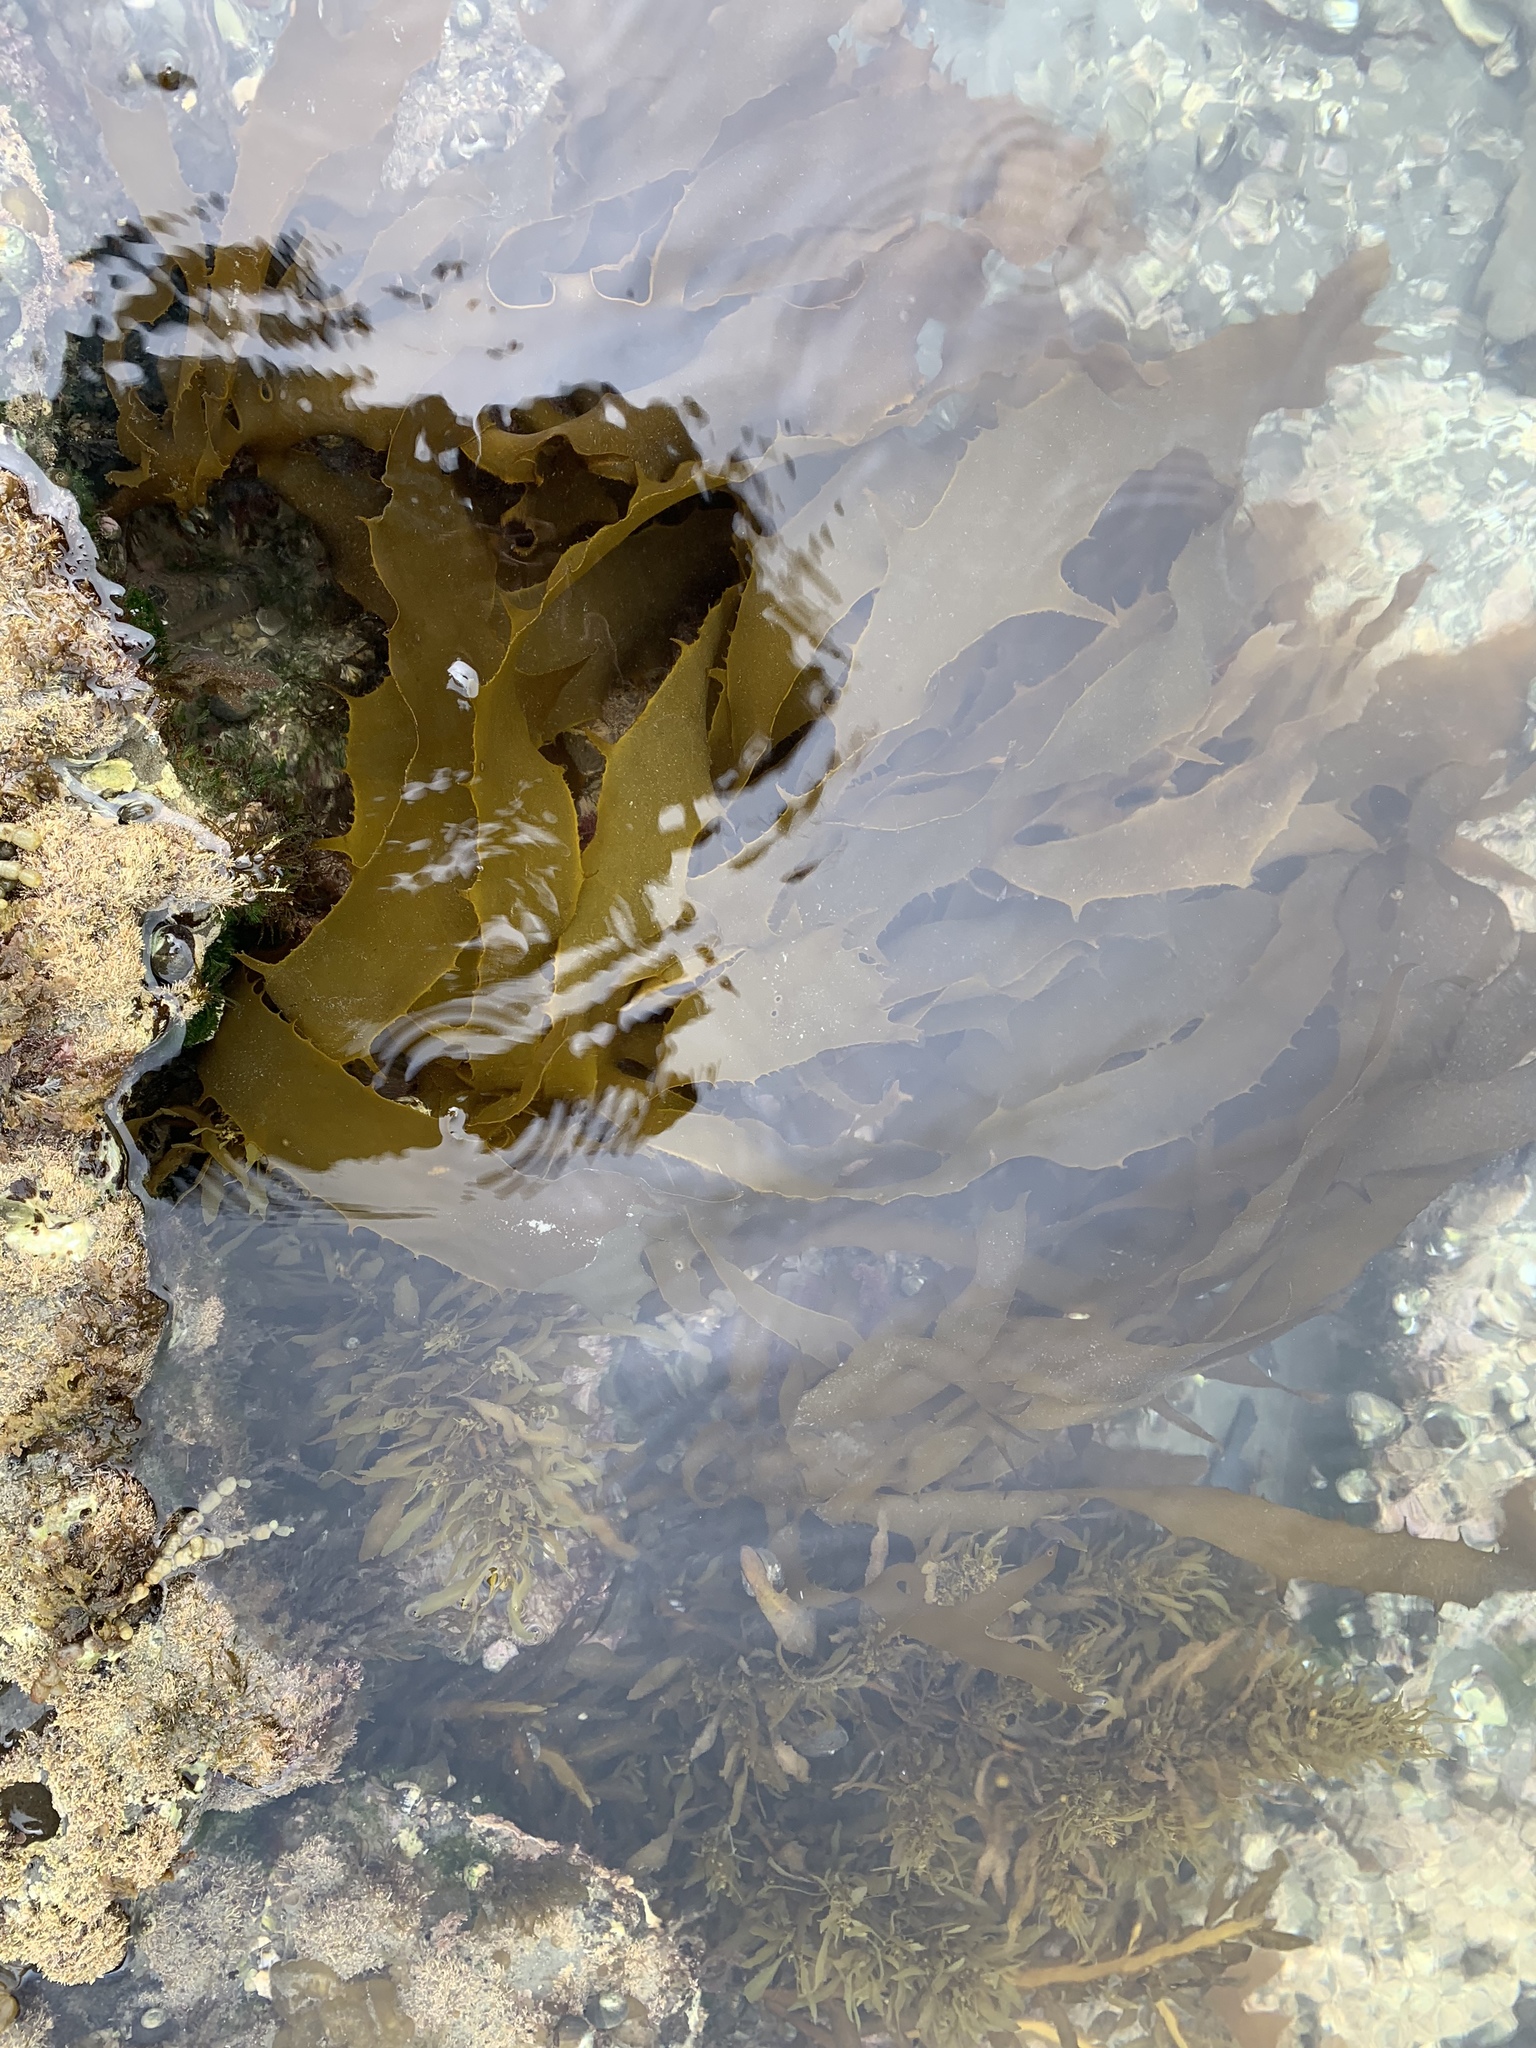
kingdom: Chromista
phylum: Ochrophyta
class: Phaeophyceae
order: Laminariales
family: Lessoniaceae
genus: Ecklonia
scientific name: Ecklonia radiata
